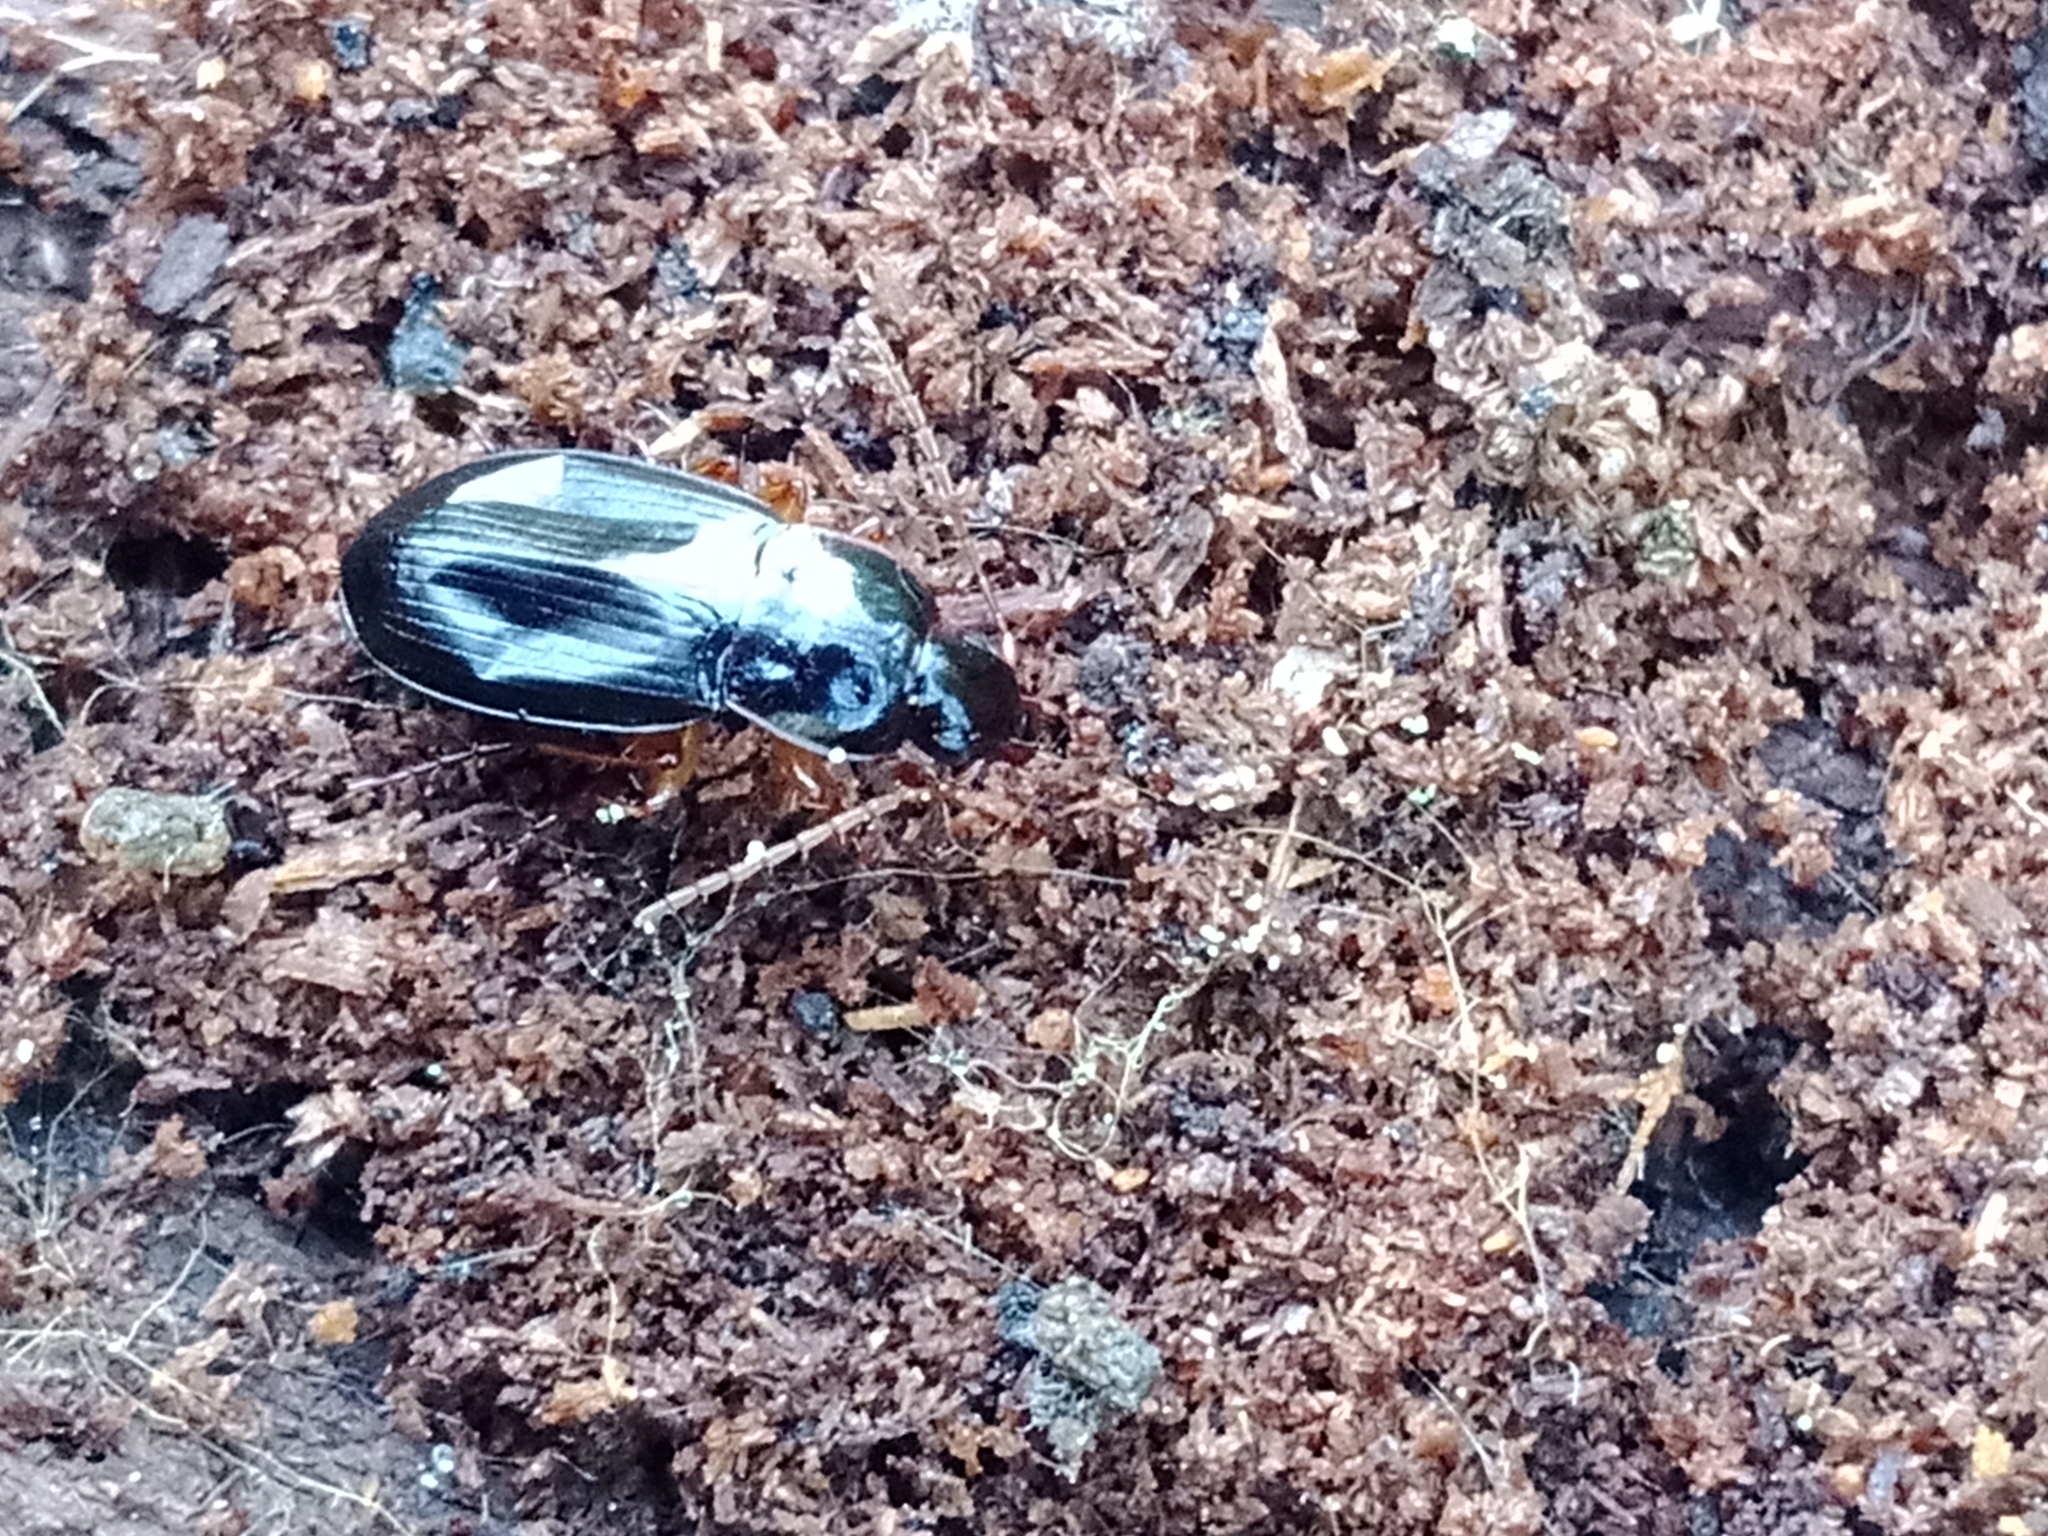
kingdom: Animalia
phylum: Arthropoda
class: Insecta
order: Coleoptera
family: Carabidae
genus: Calathus
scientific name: Calathus erratus
